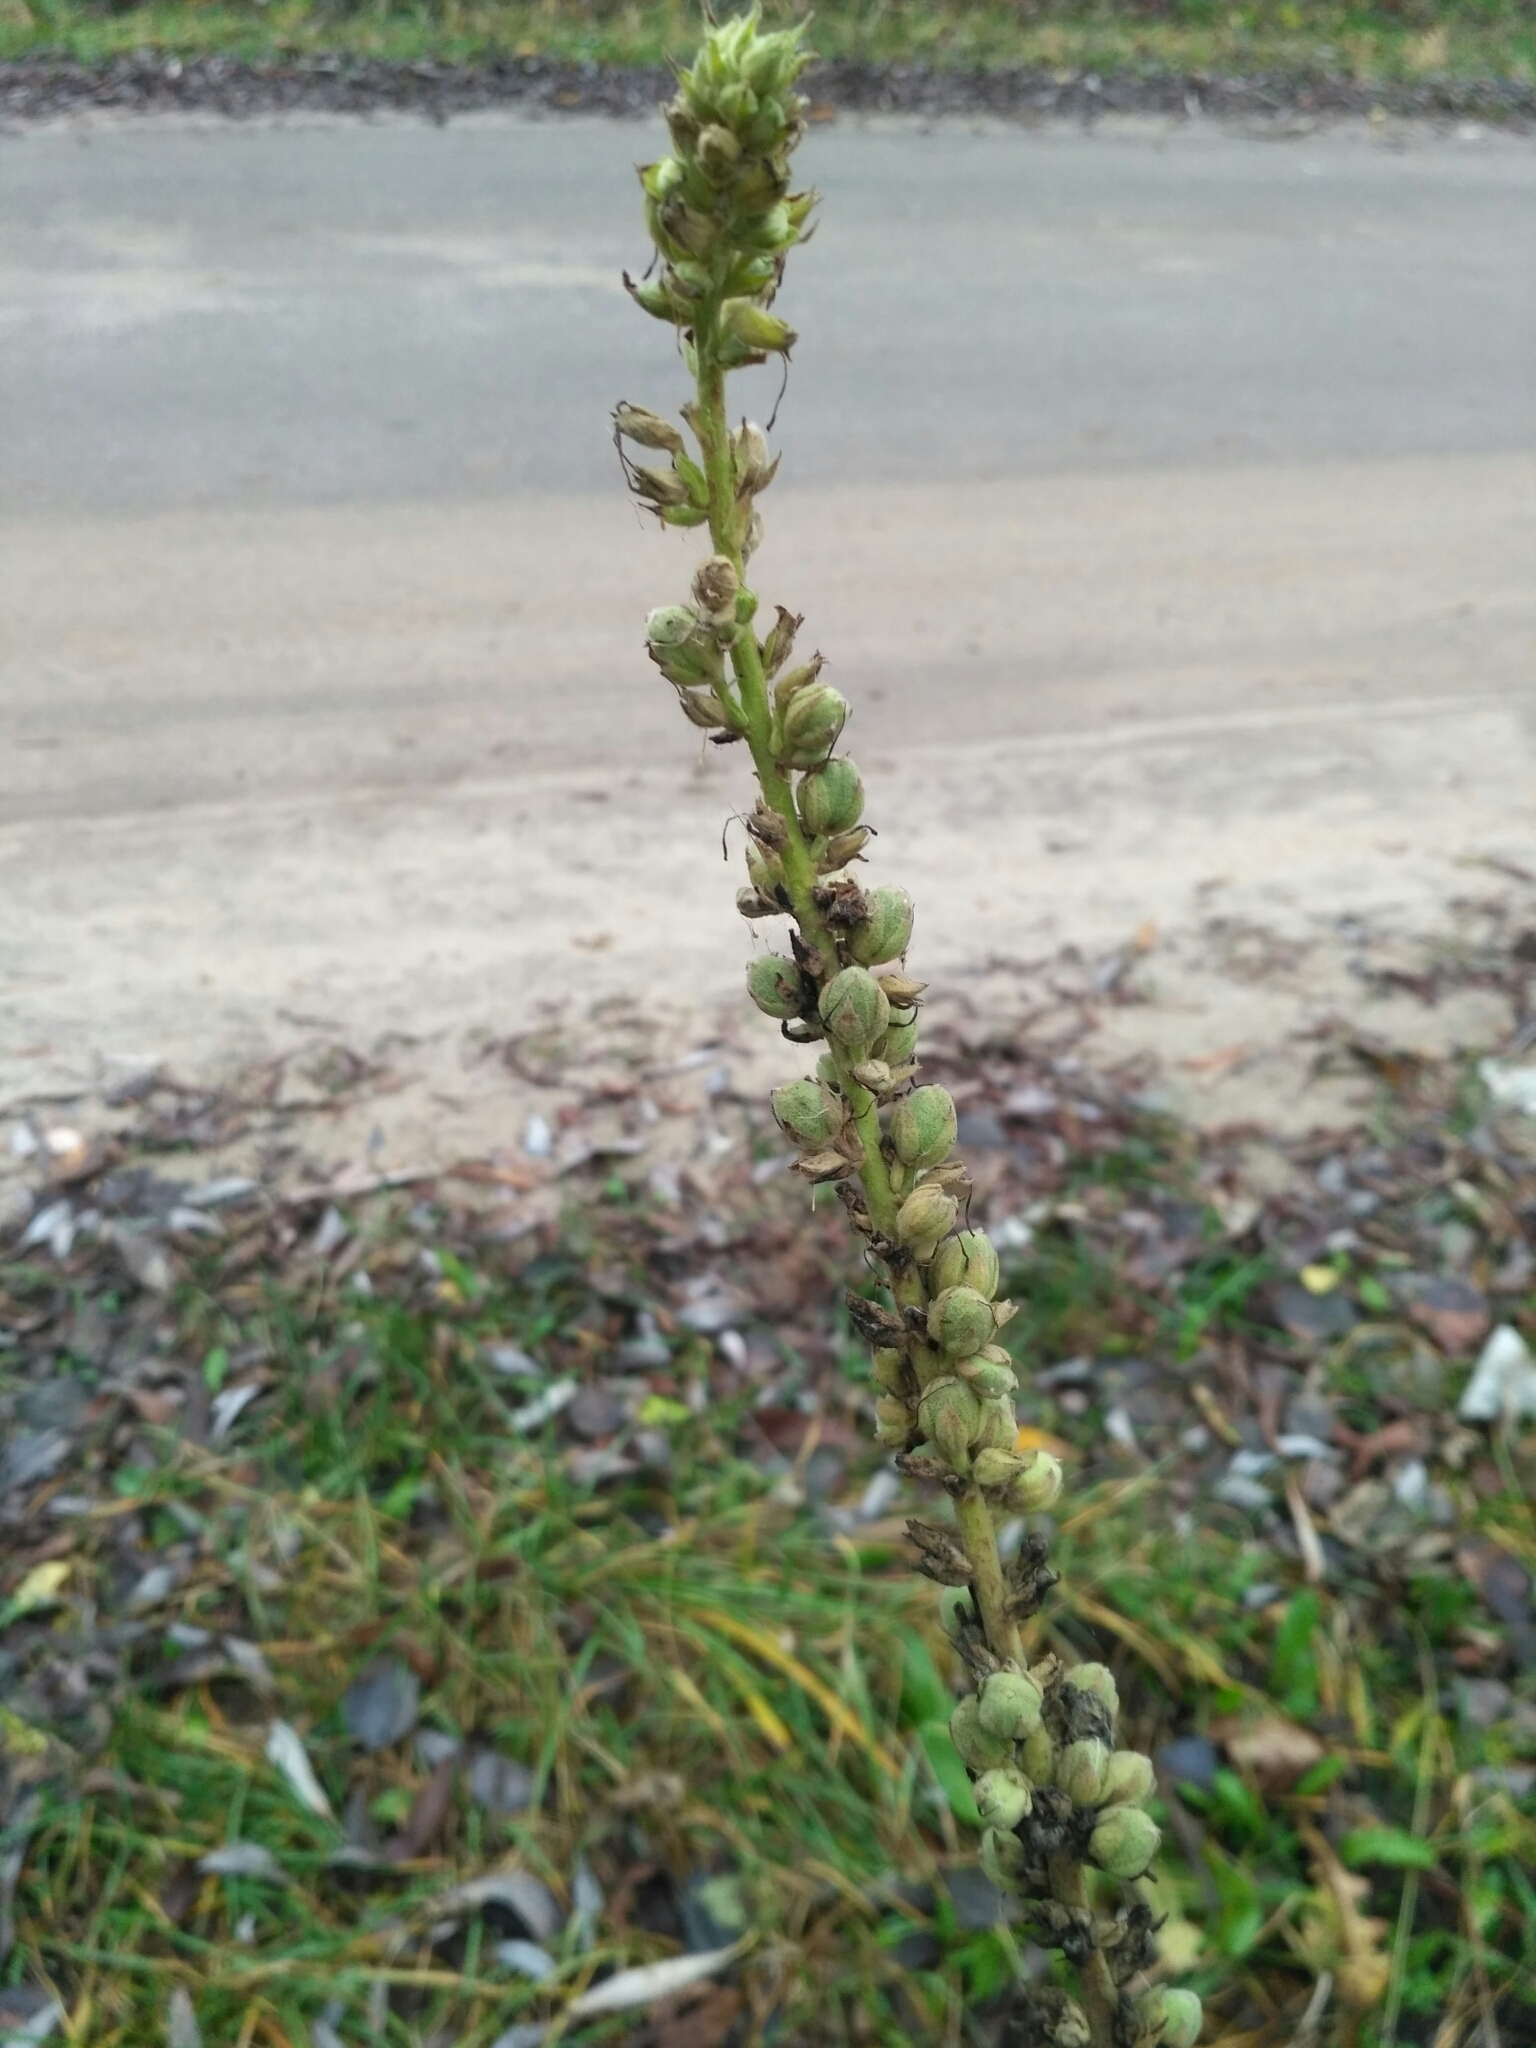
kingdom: Plantae
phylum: Tracheophyta
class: Magnoliopsida
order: Lamiales
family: Scrophulariaceae
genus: Verbascum
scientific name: Verbascum nigrum
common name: Dark mullein
